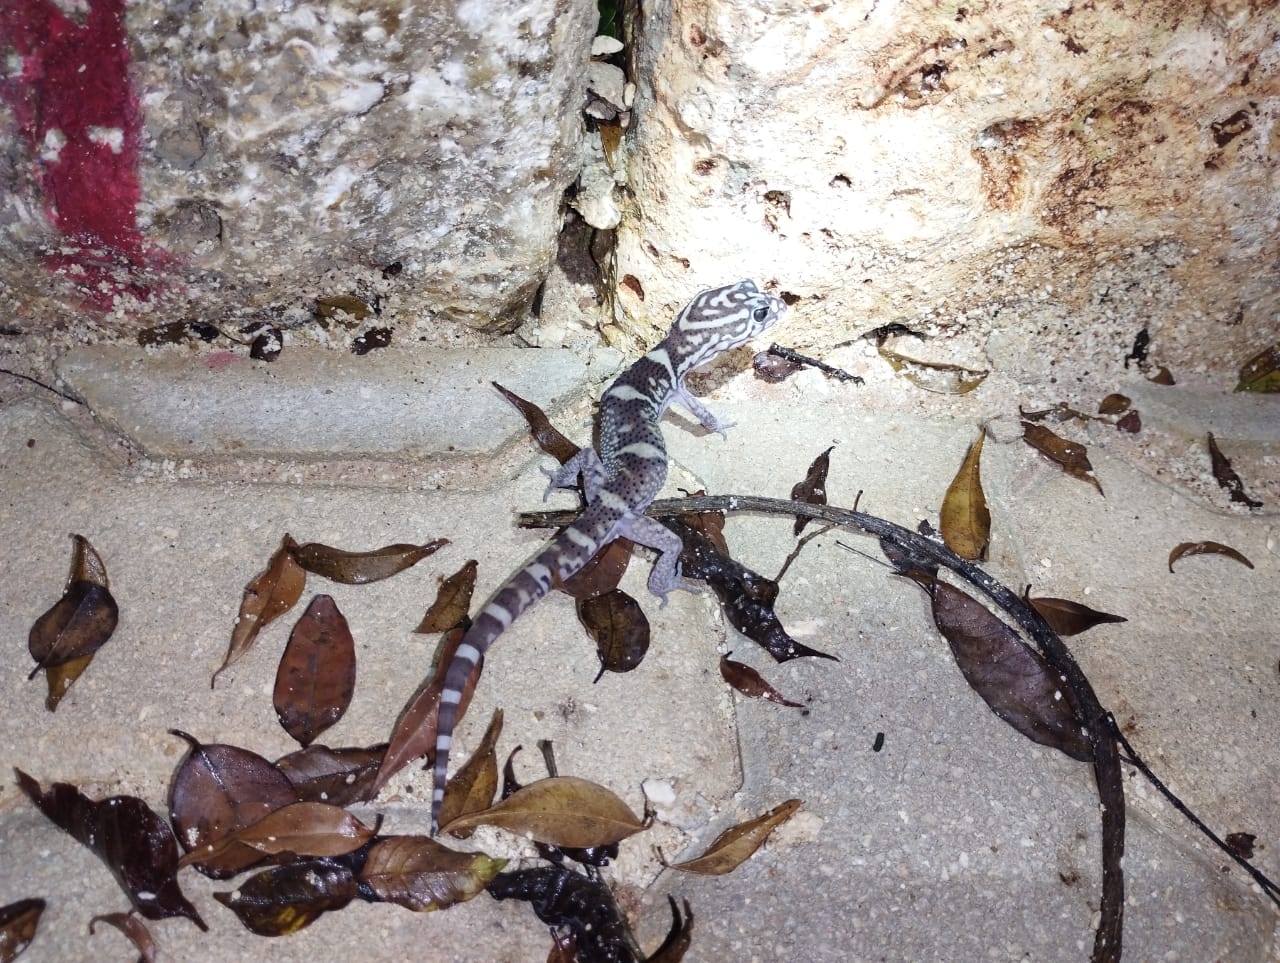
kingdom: Animalia
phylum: Chordata
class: Squamata
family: Eublepharidae
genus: Coleonyx
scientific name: Coleonyx elegans
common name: Yucatan banded gecko
